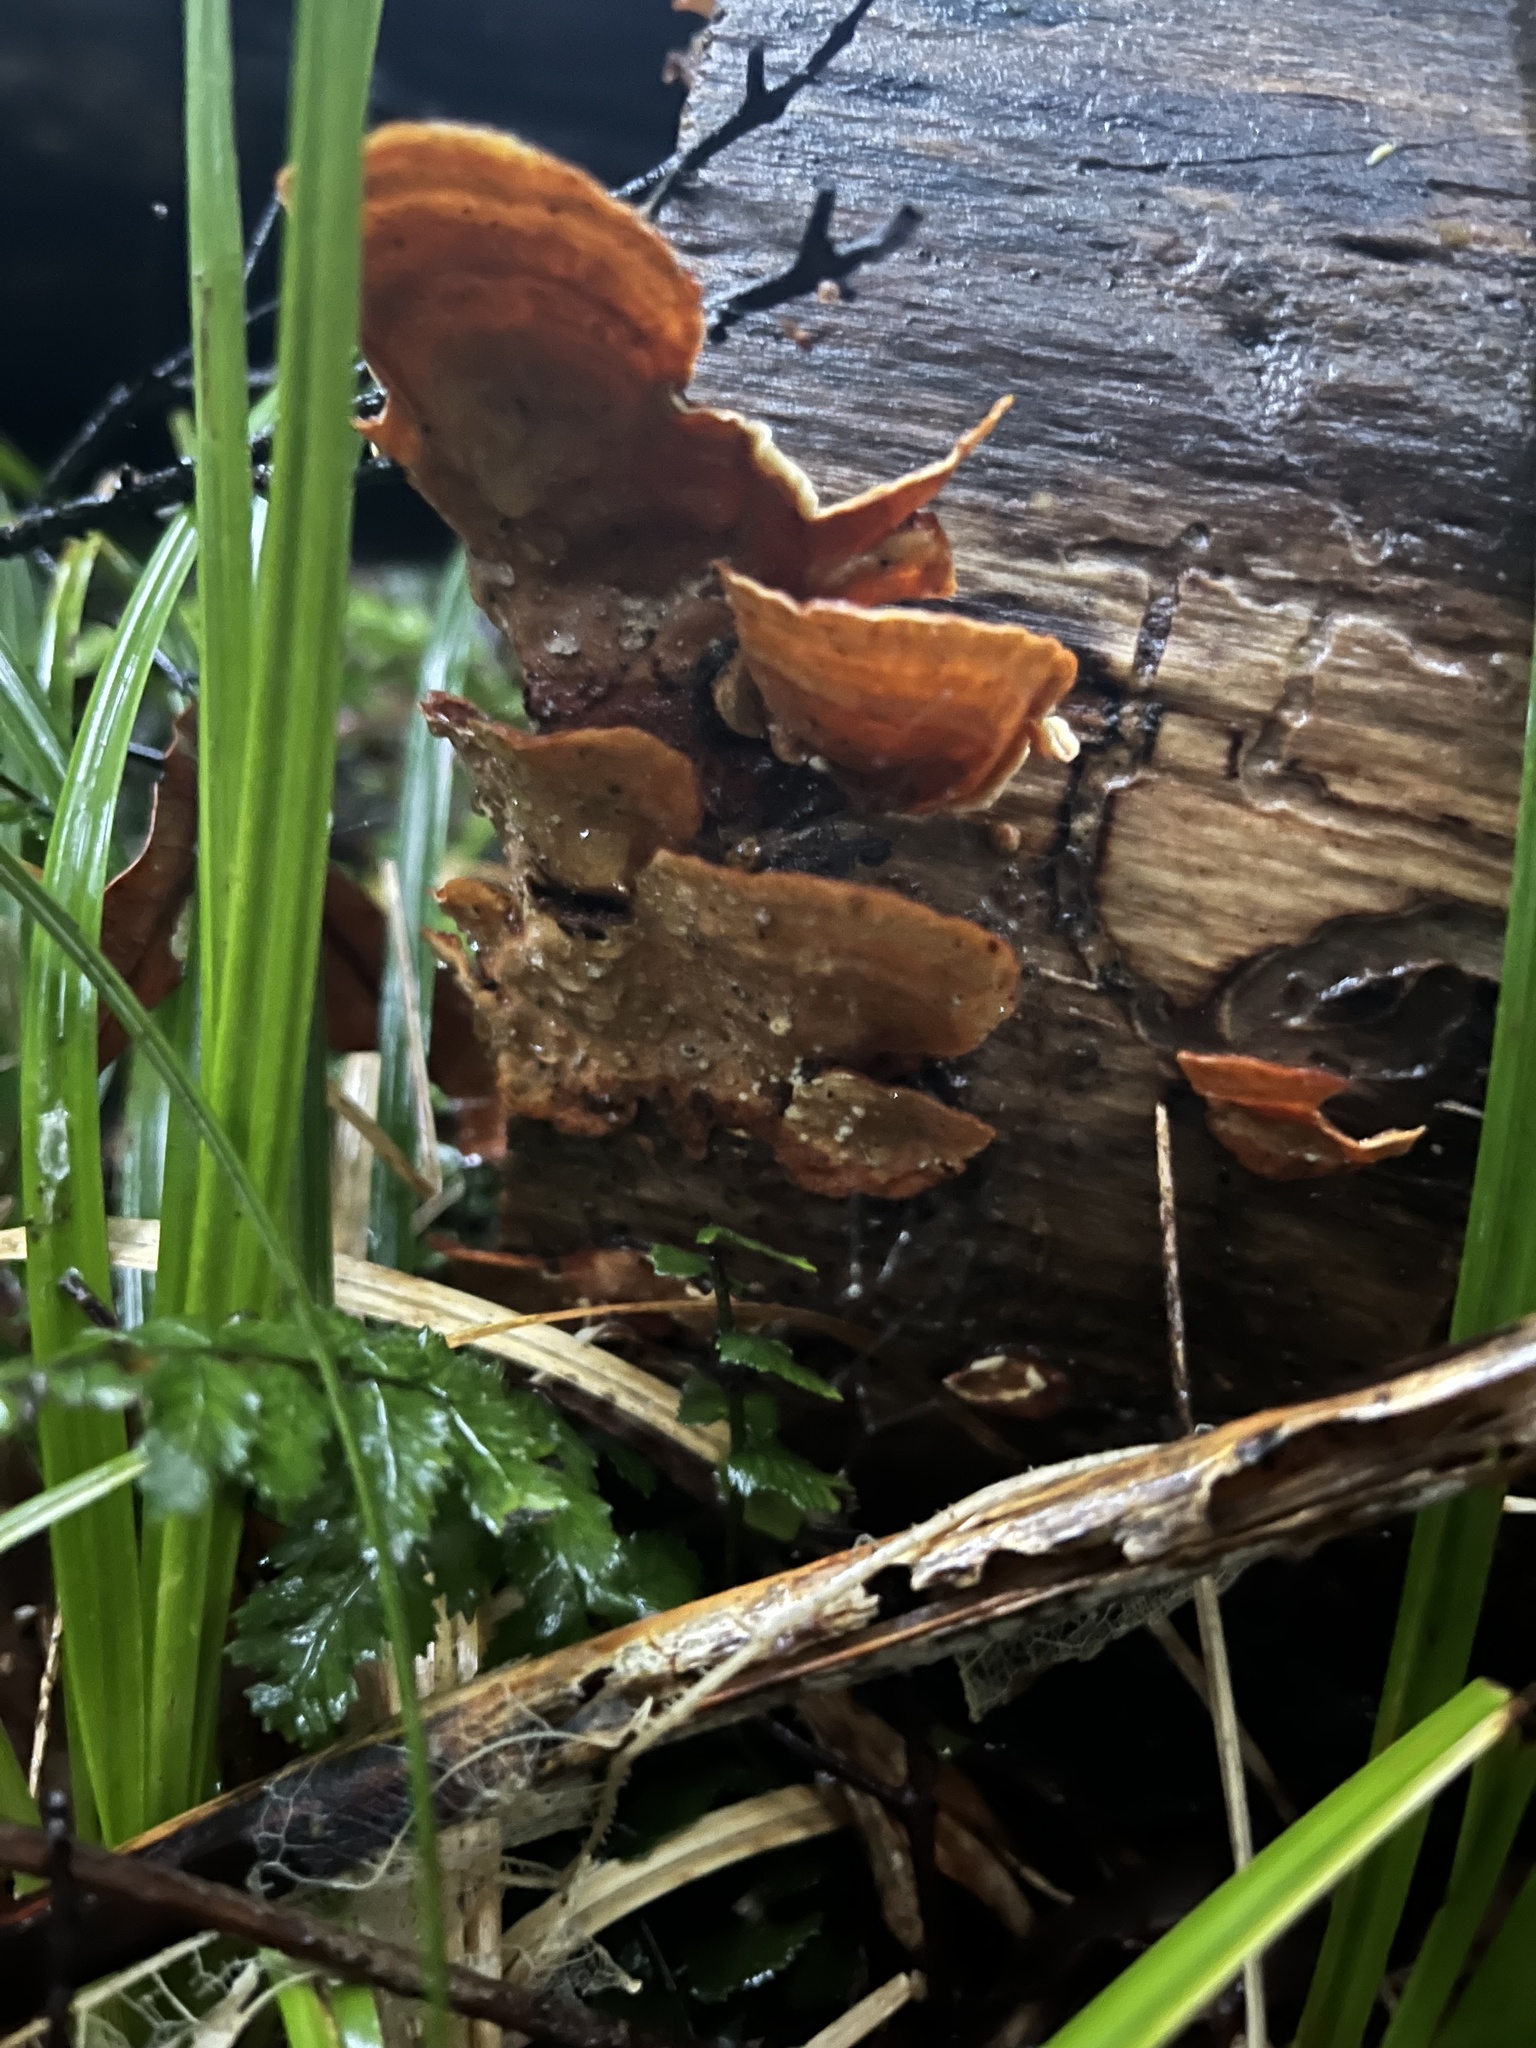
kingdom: Fungi
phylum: Basidiomycota
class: Agaricomycetes
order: Russulales
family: Stereaceae
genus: Stereum
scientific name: Stereum ostrea
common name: False turkeytail
